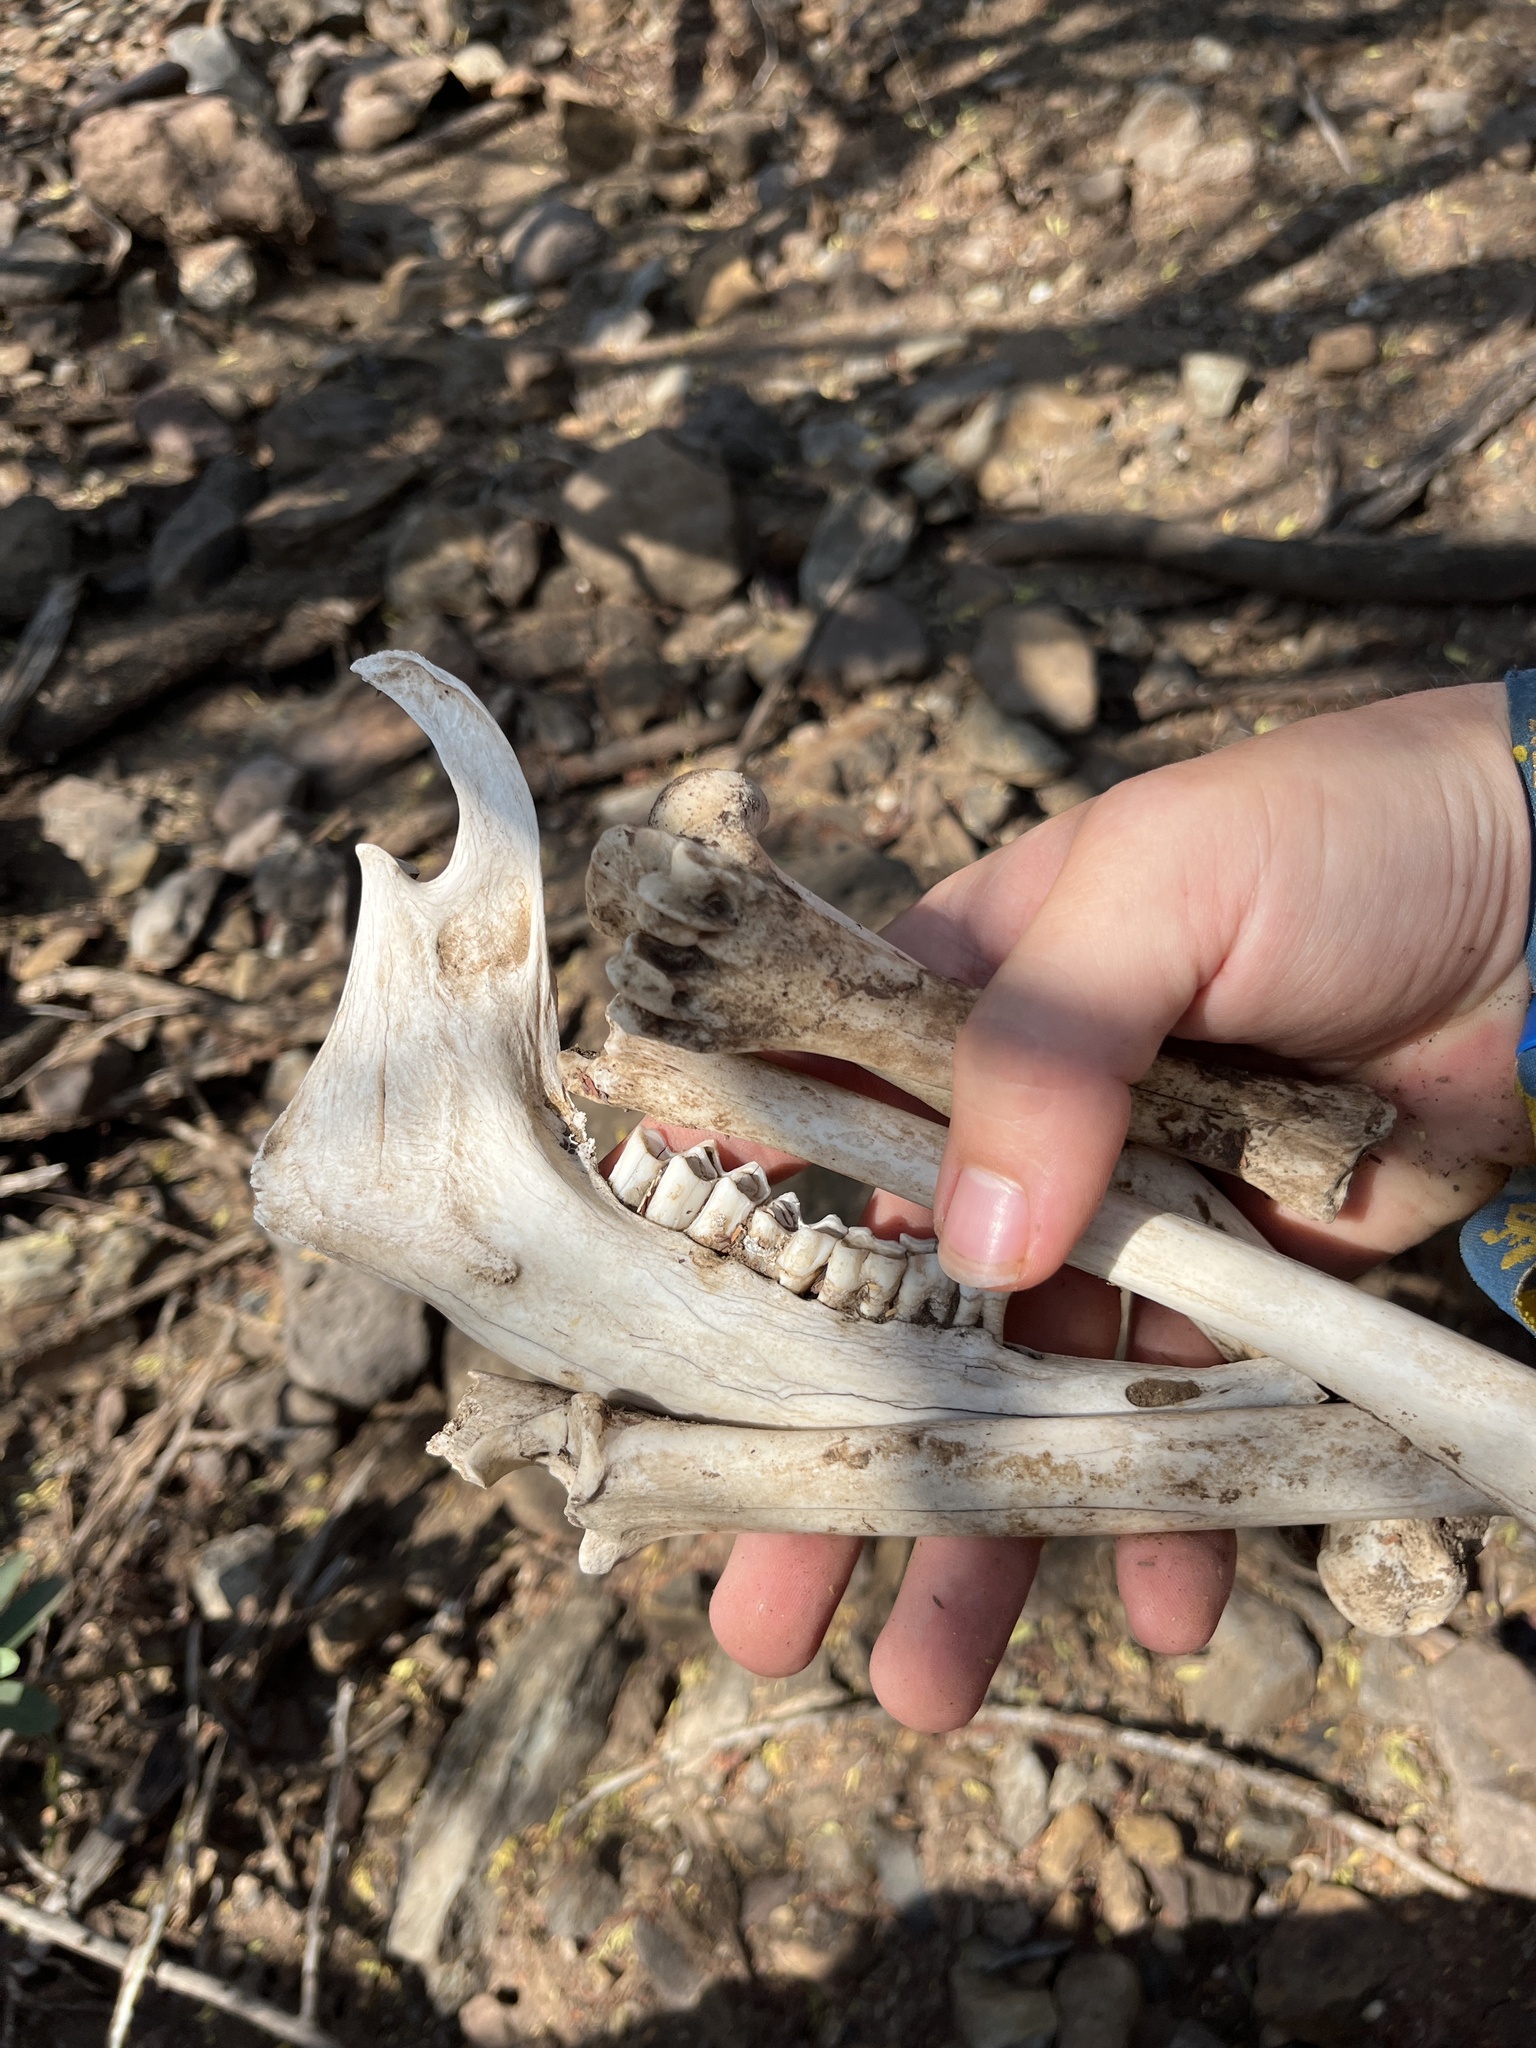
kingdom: Animalia
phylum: Chordata
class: Mammalia
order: Artiodactyla
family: Bovidae
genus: Capra
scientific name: Capra hircus
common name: Domestic goat
